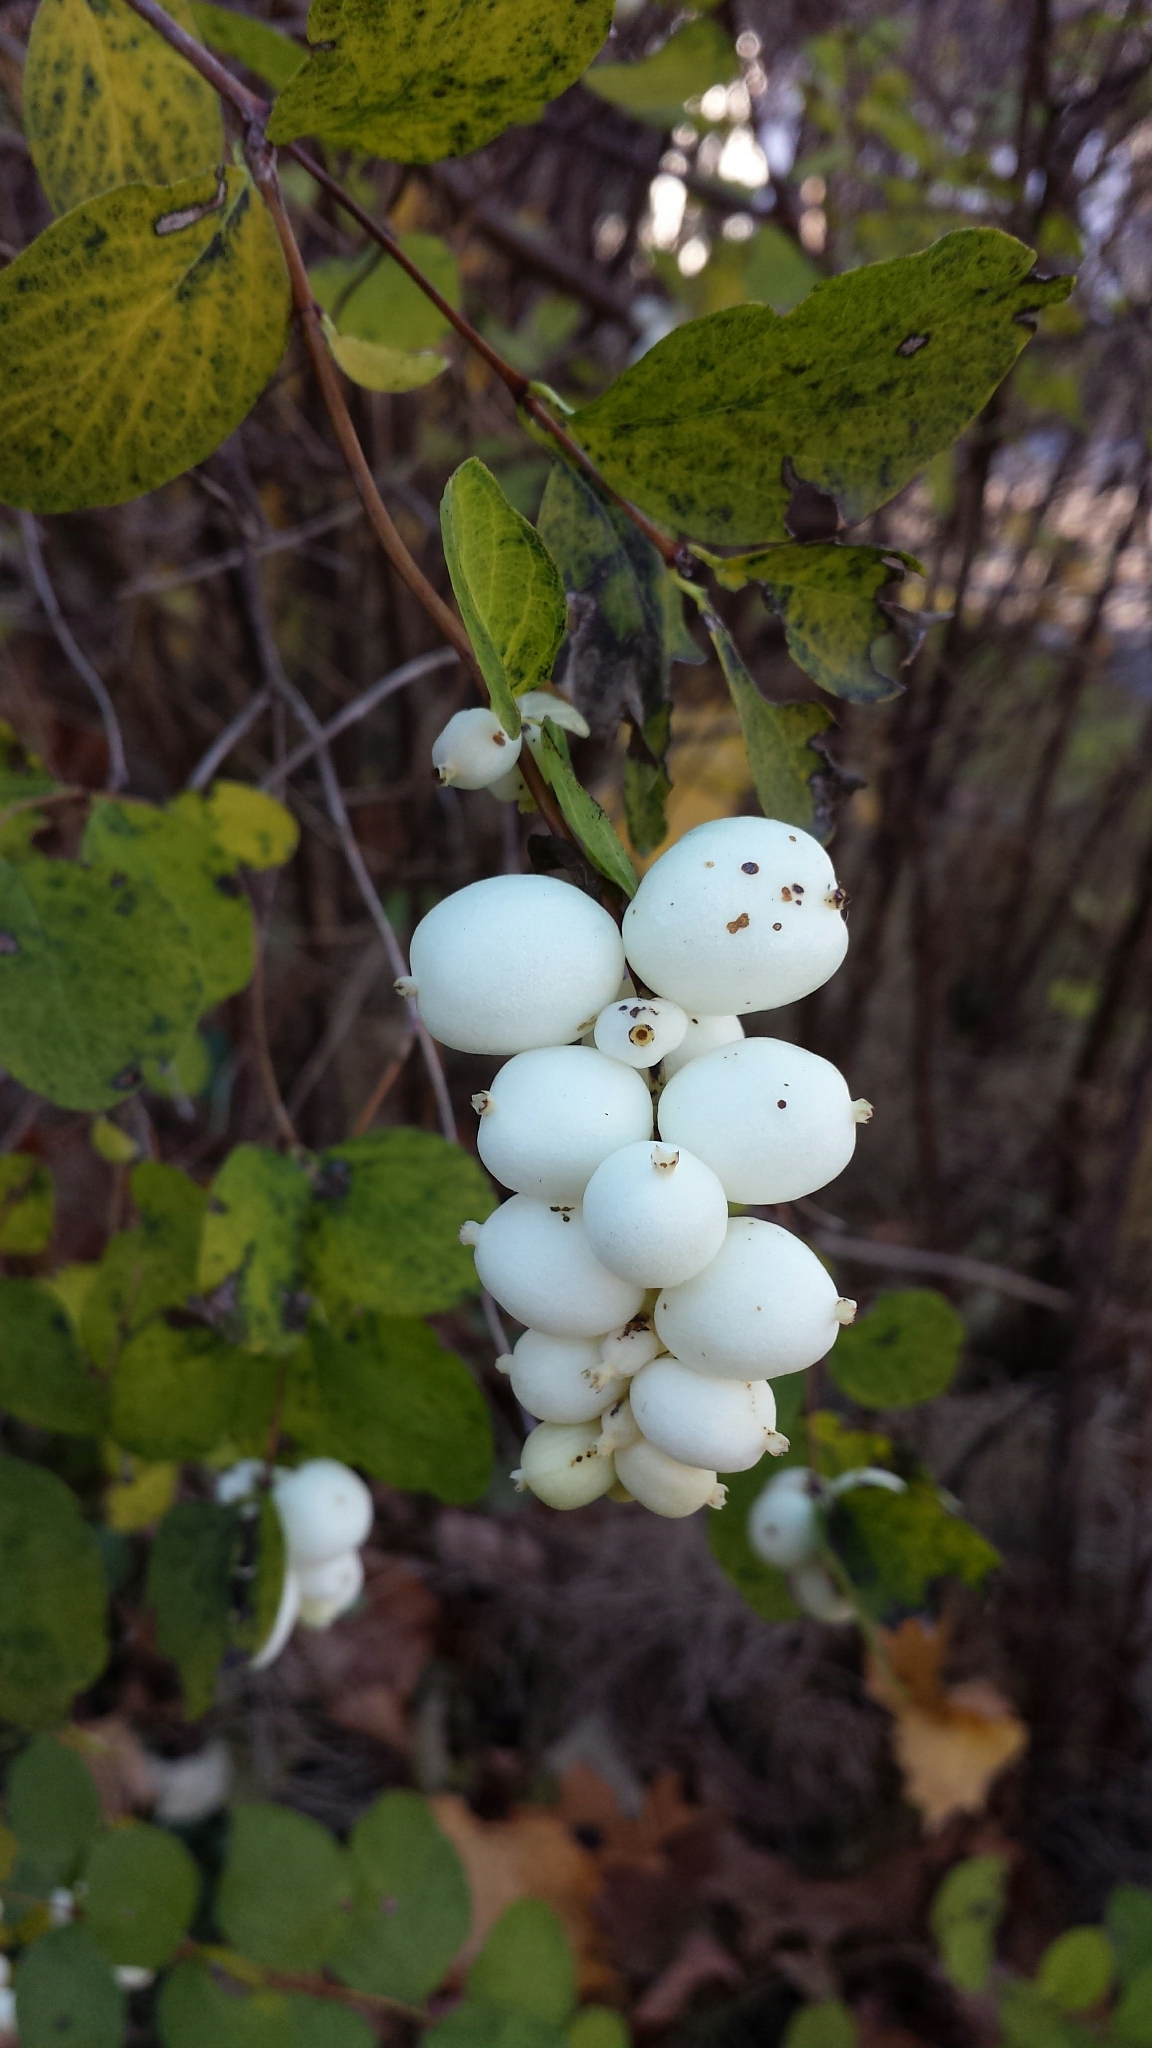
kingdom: Plantae
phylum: Tracheophyta
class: Magnoliopsida
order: Dipsacales
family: Caprifoliaceae
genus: Symphoricarpos
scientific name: Symphoricarpos albus
